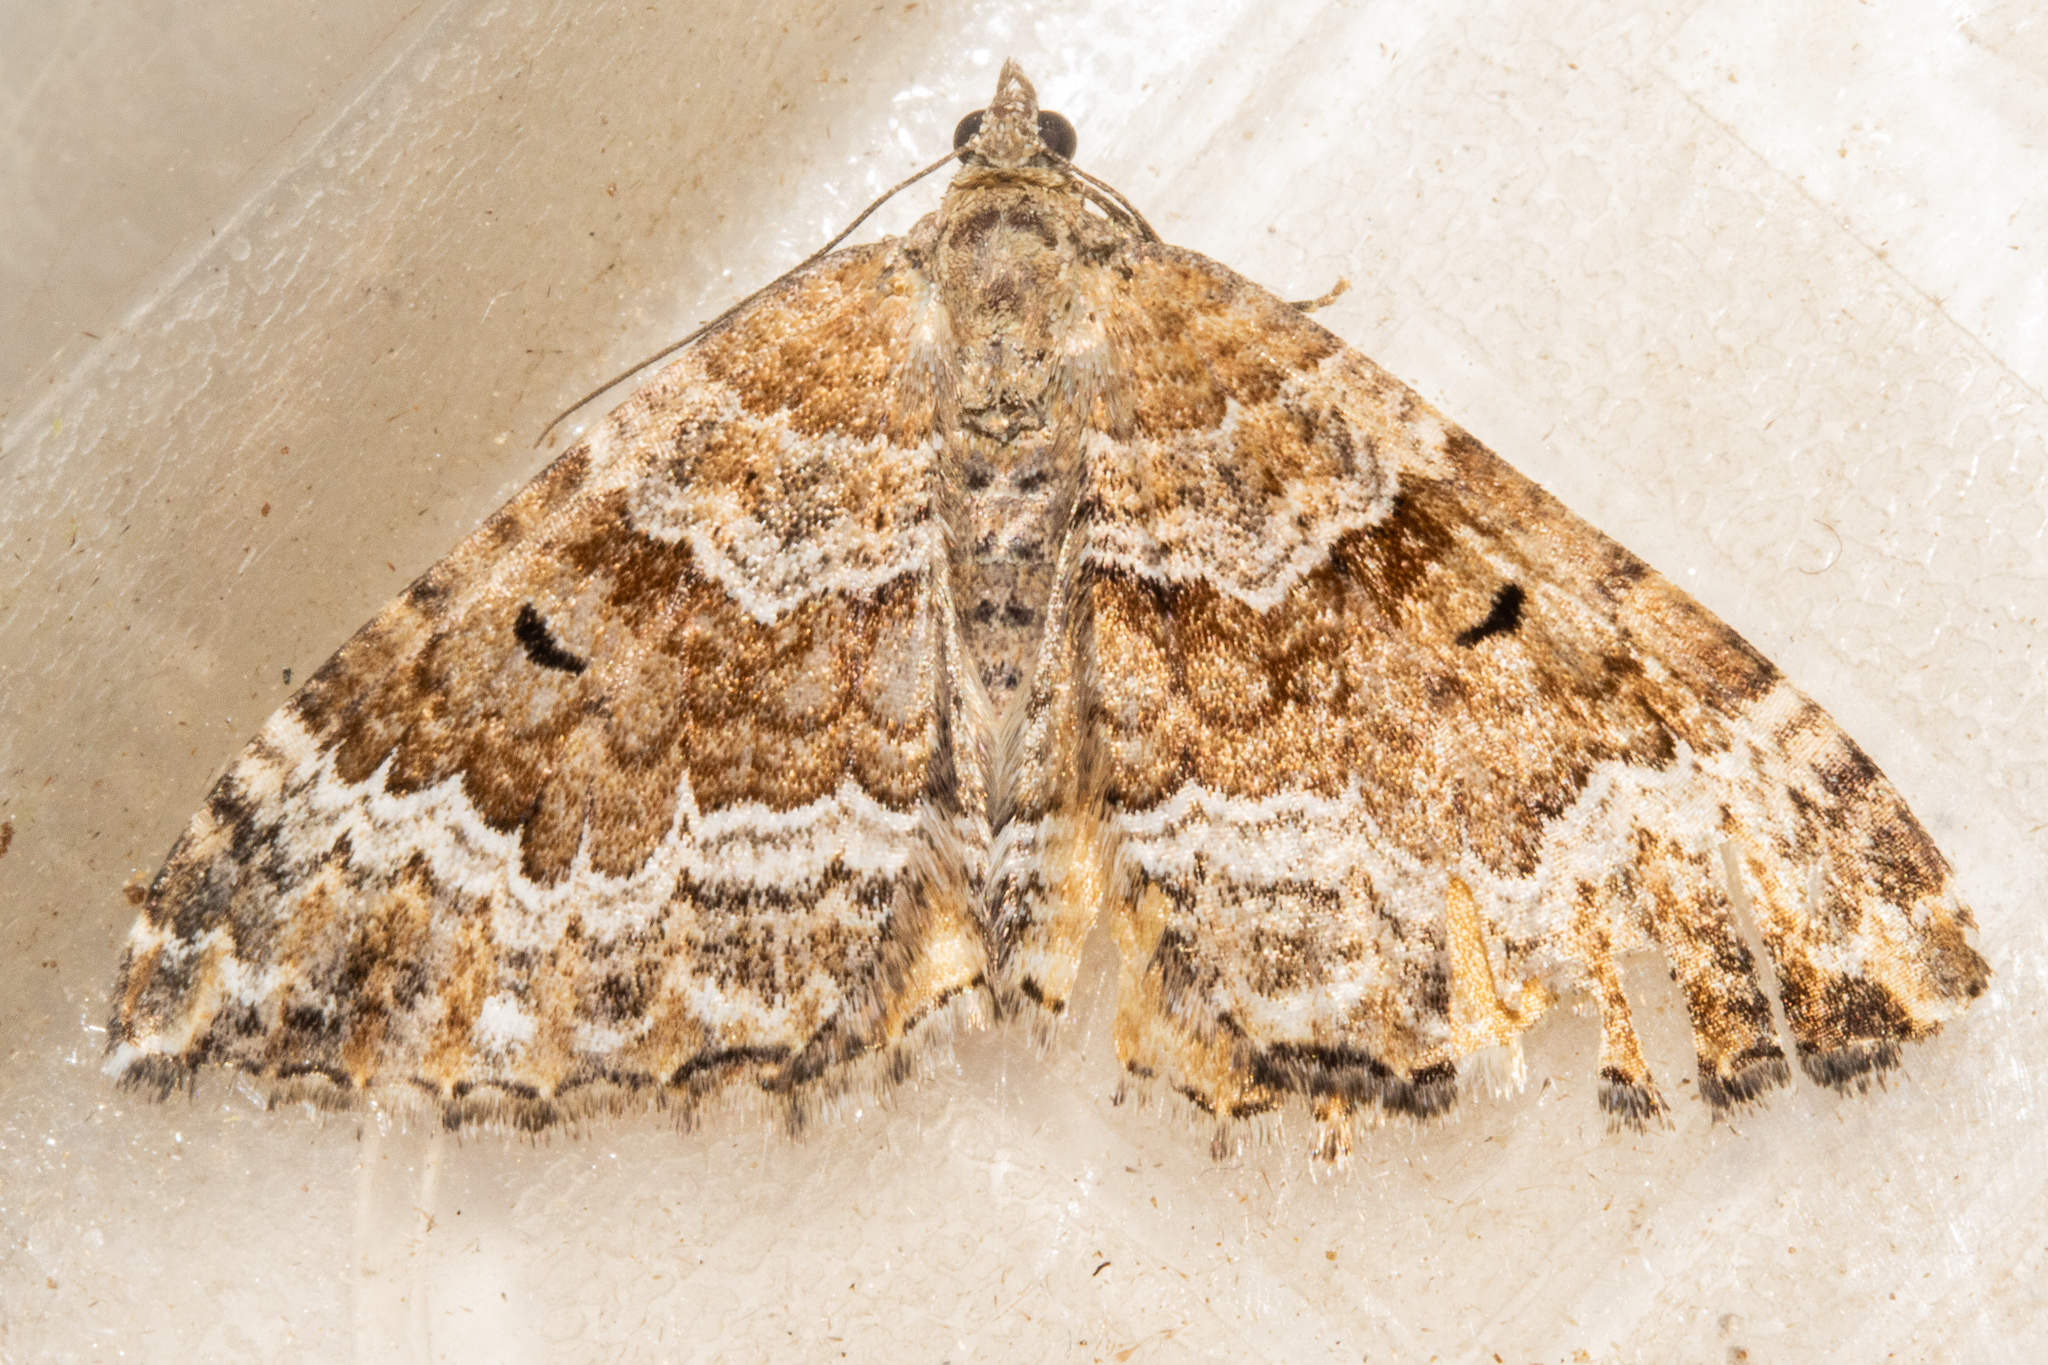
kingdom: Animalia
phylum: Arthropoda
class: Insecta
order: Lepidoptera
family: Geometridae
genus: Hydriomena
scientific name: Hydriomena deltoidata
